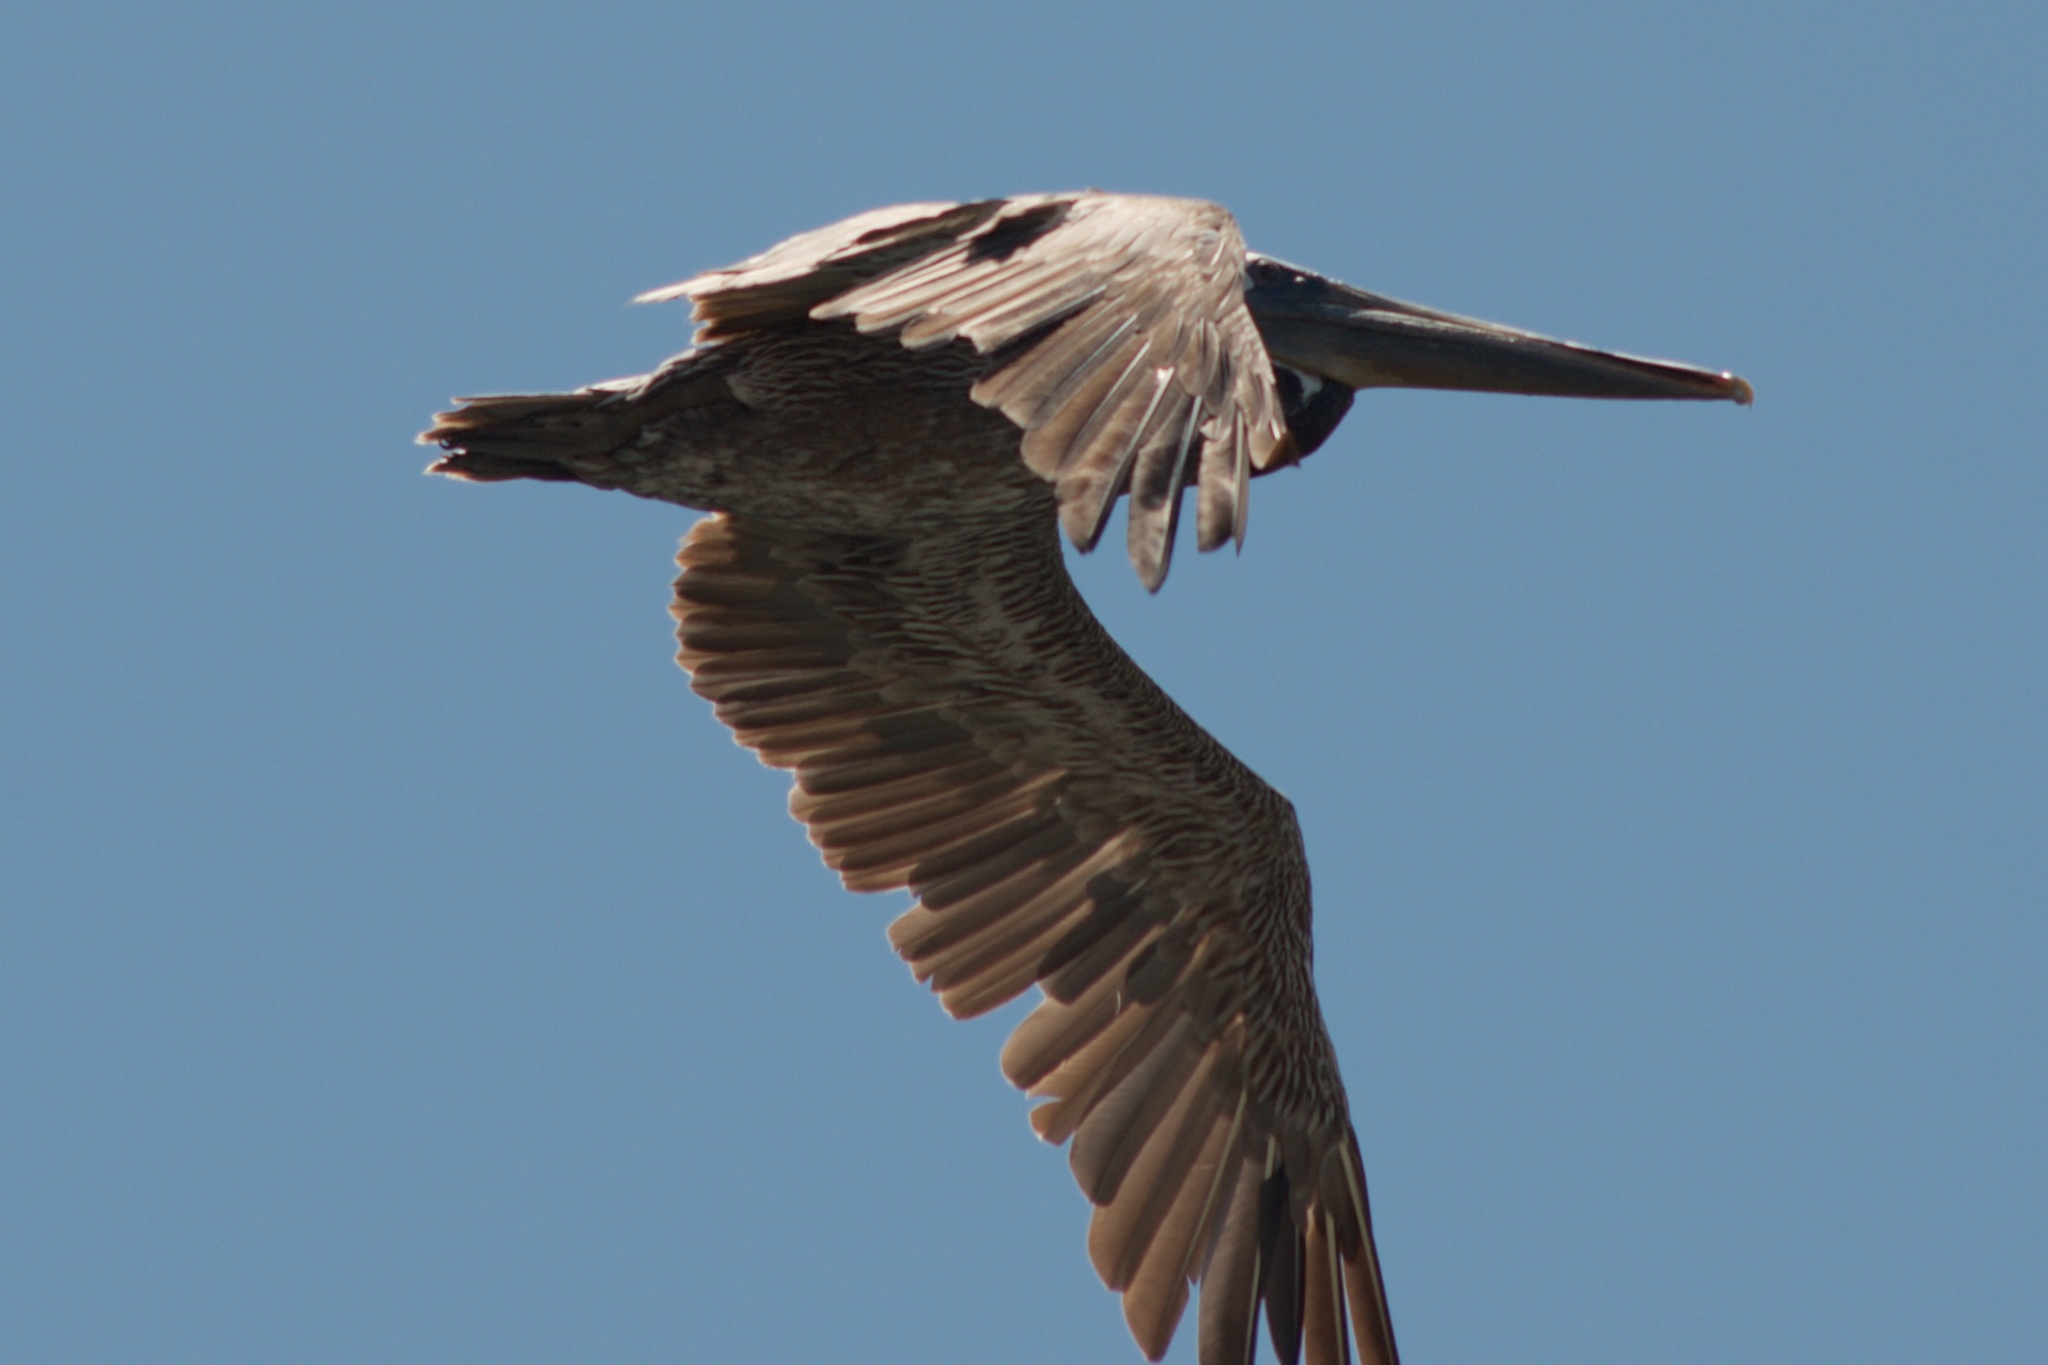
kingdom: Animalia
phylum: Chordata
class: Aves
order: Pelecaniformes
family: Pelecanidae
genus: Pelecanus
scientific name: Pelecanus occidentalis
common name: Brown pelican
